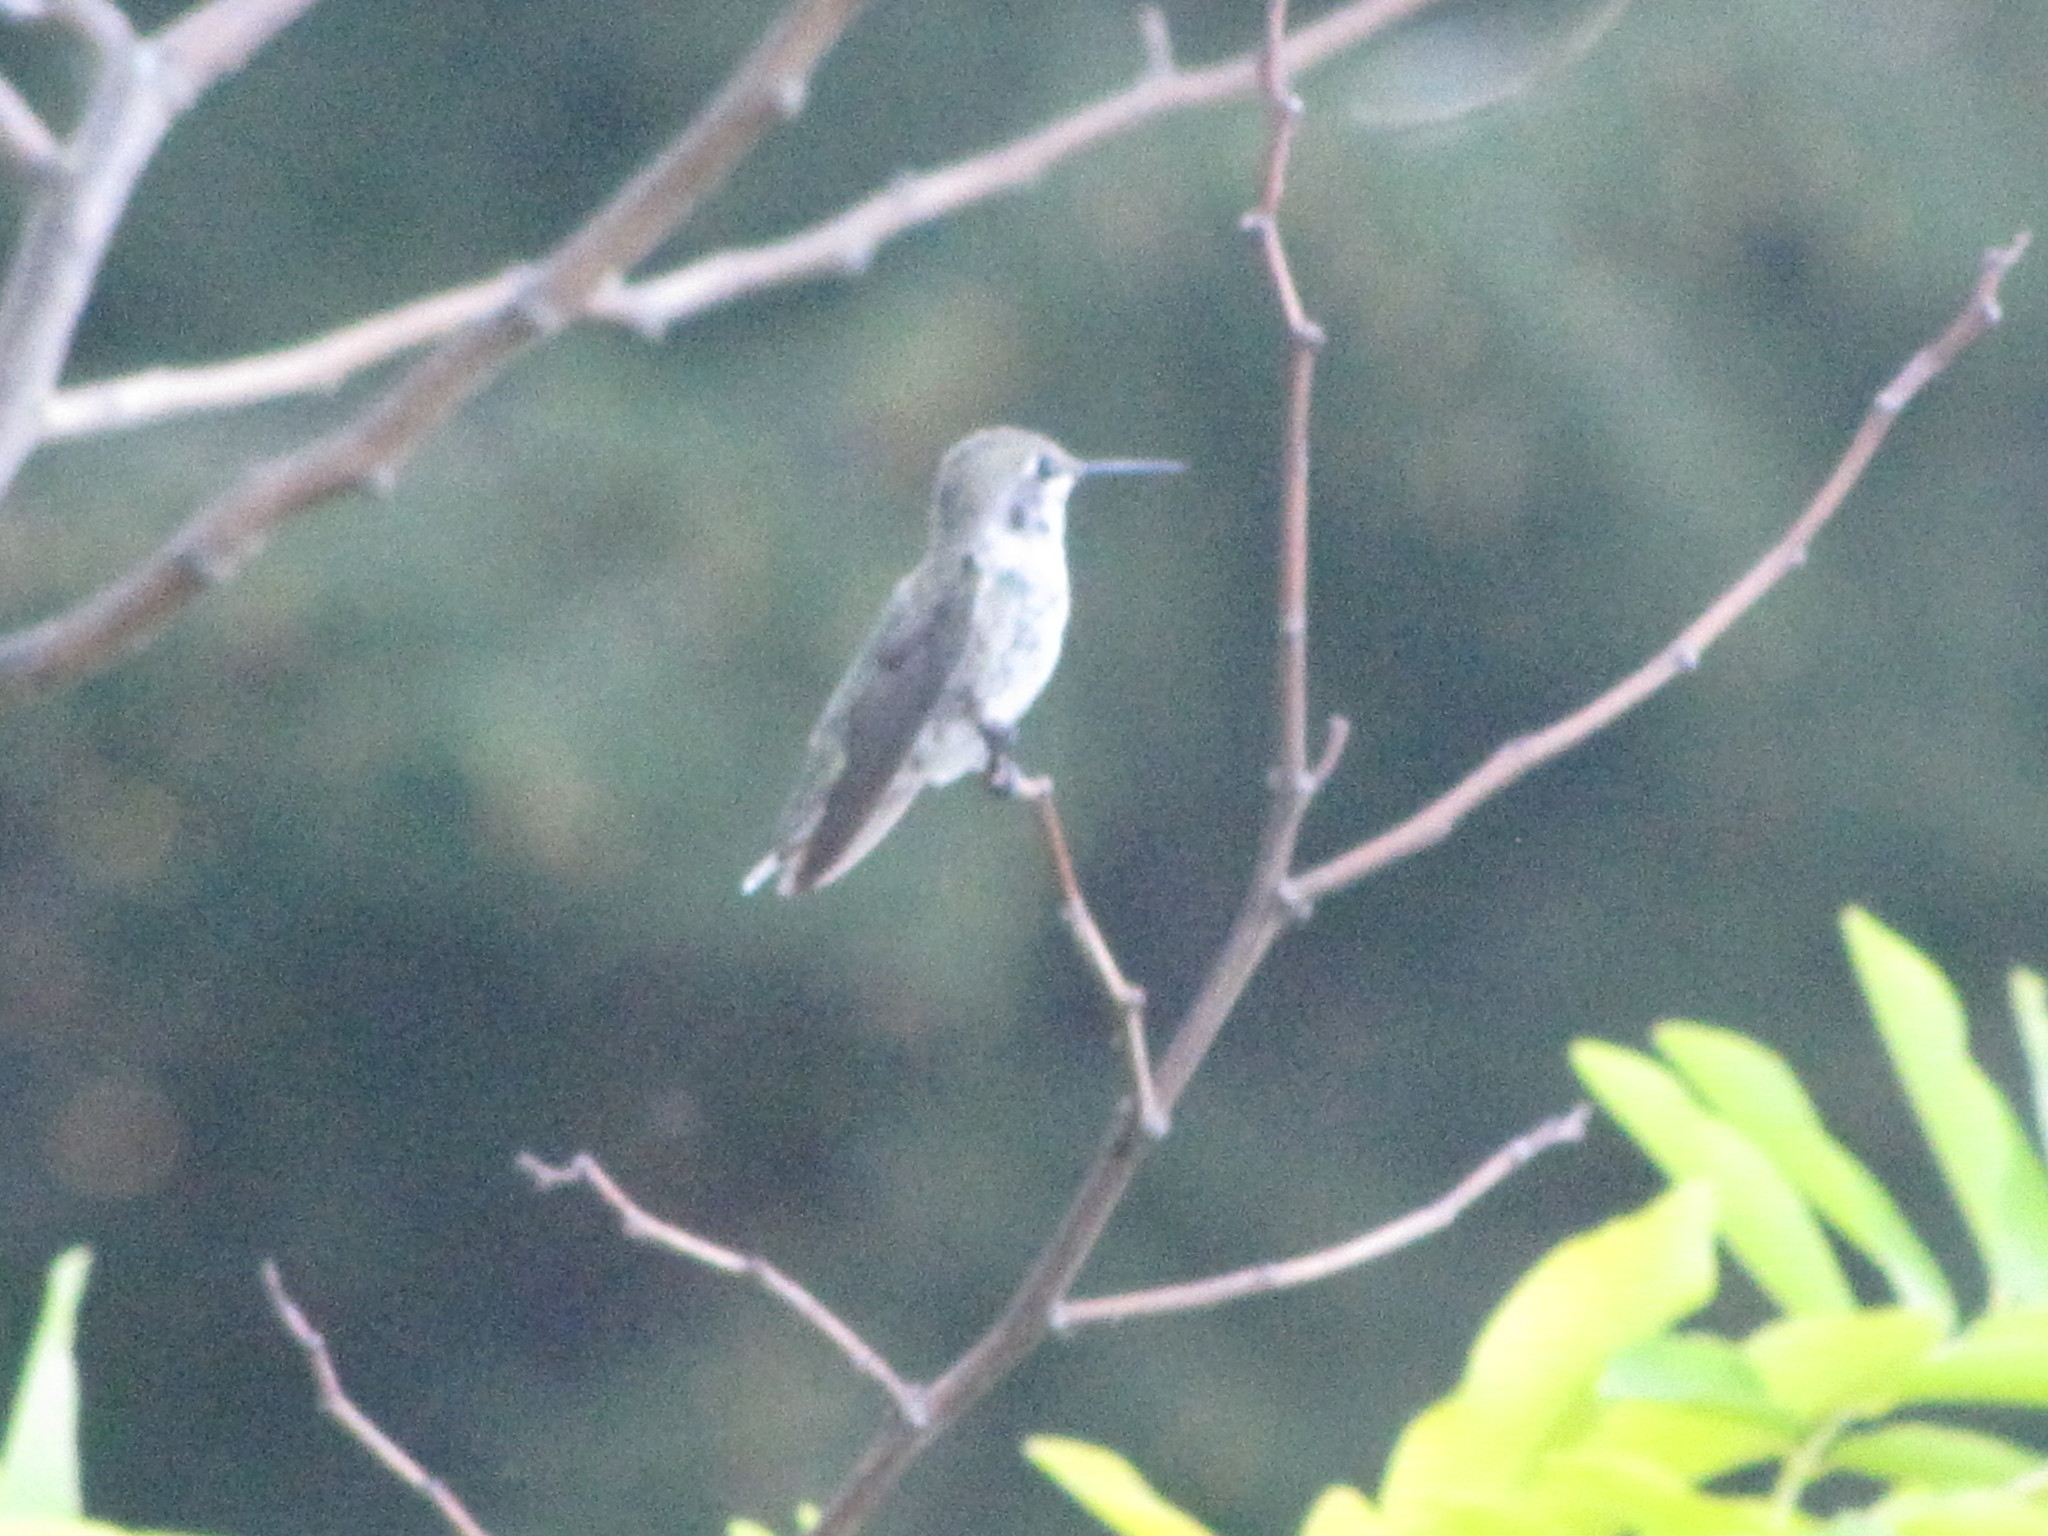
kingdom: Animalia
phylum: Chordata
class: Aves
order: Apodiformes
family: Trochilidae
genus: Calypte
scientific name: Calypte anna
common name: Anna's hummingbird
